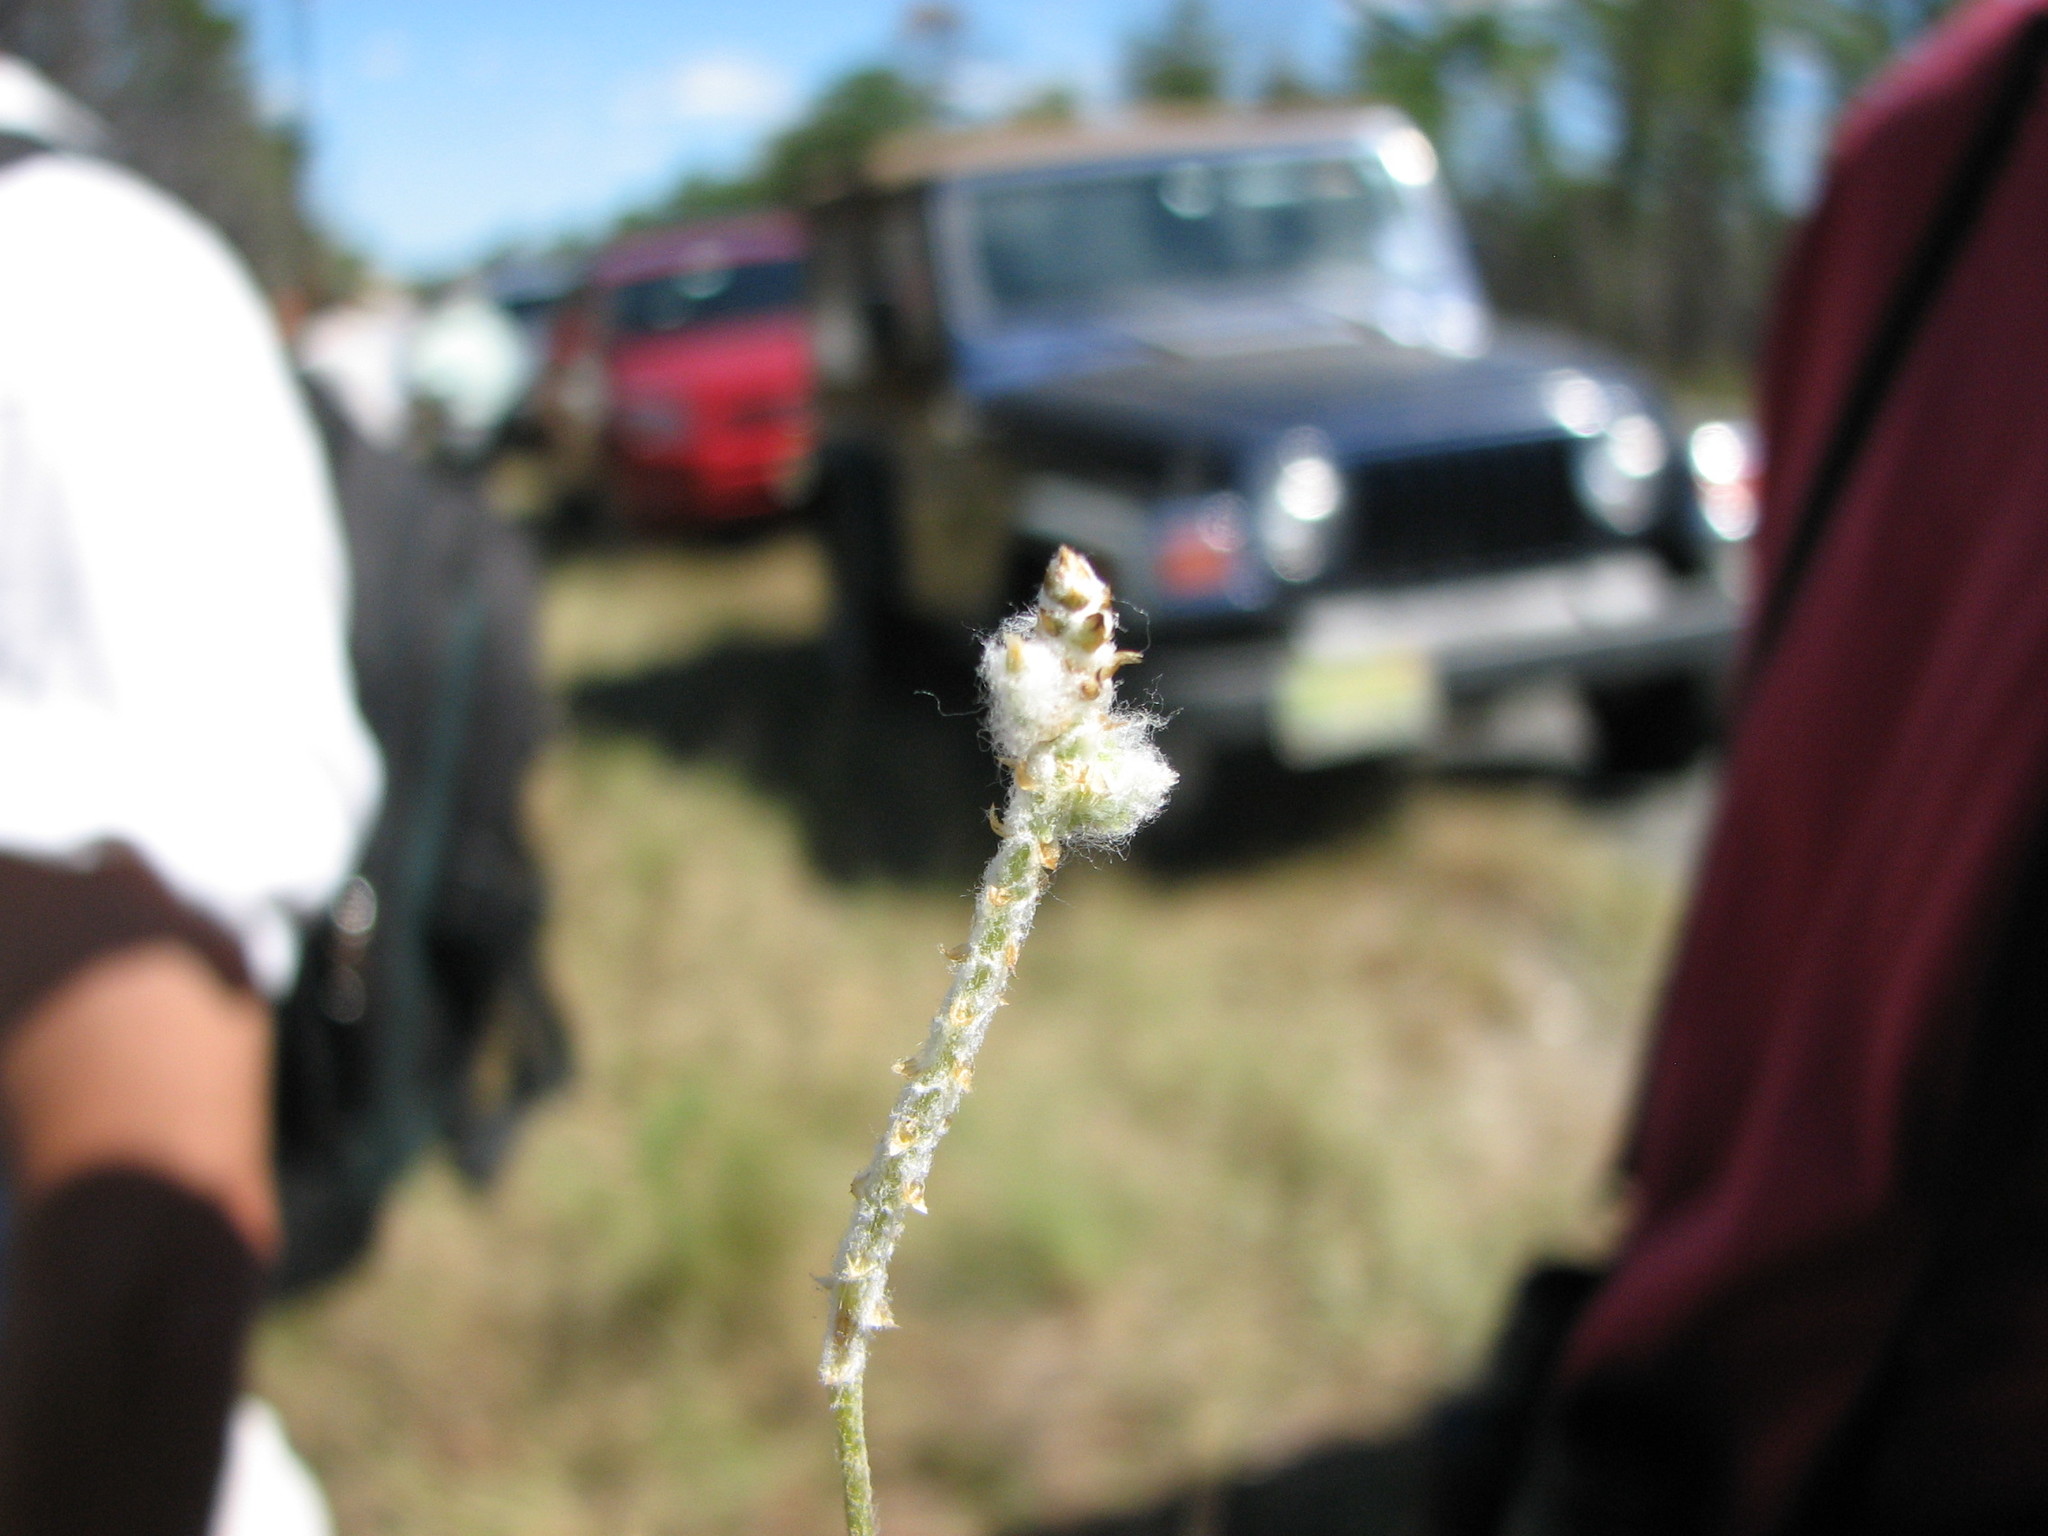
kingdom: Plantae
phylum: Tracheophyta
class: Magnoliopsida
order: Caryophyllales
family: Amaranthaceae
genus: Froelichia
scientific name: Froelichia gracilis
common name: Slender cottonweed
